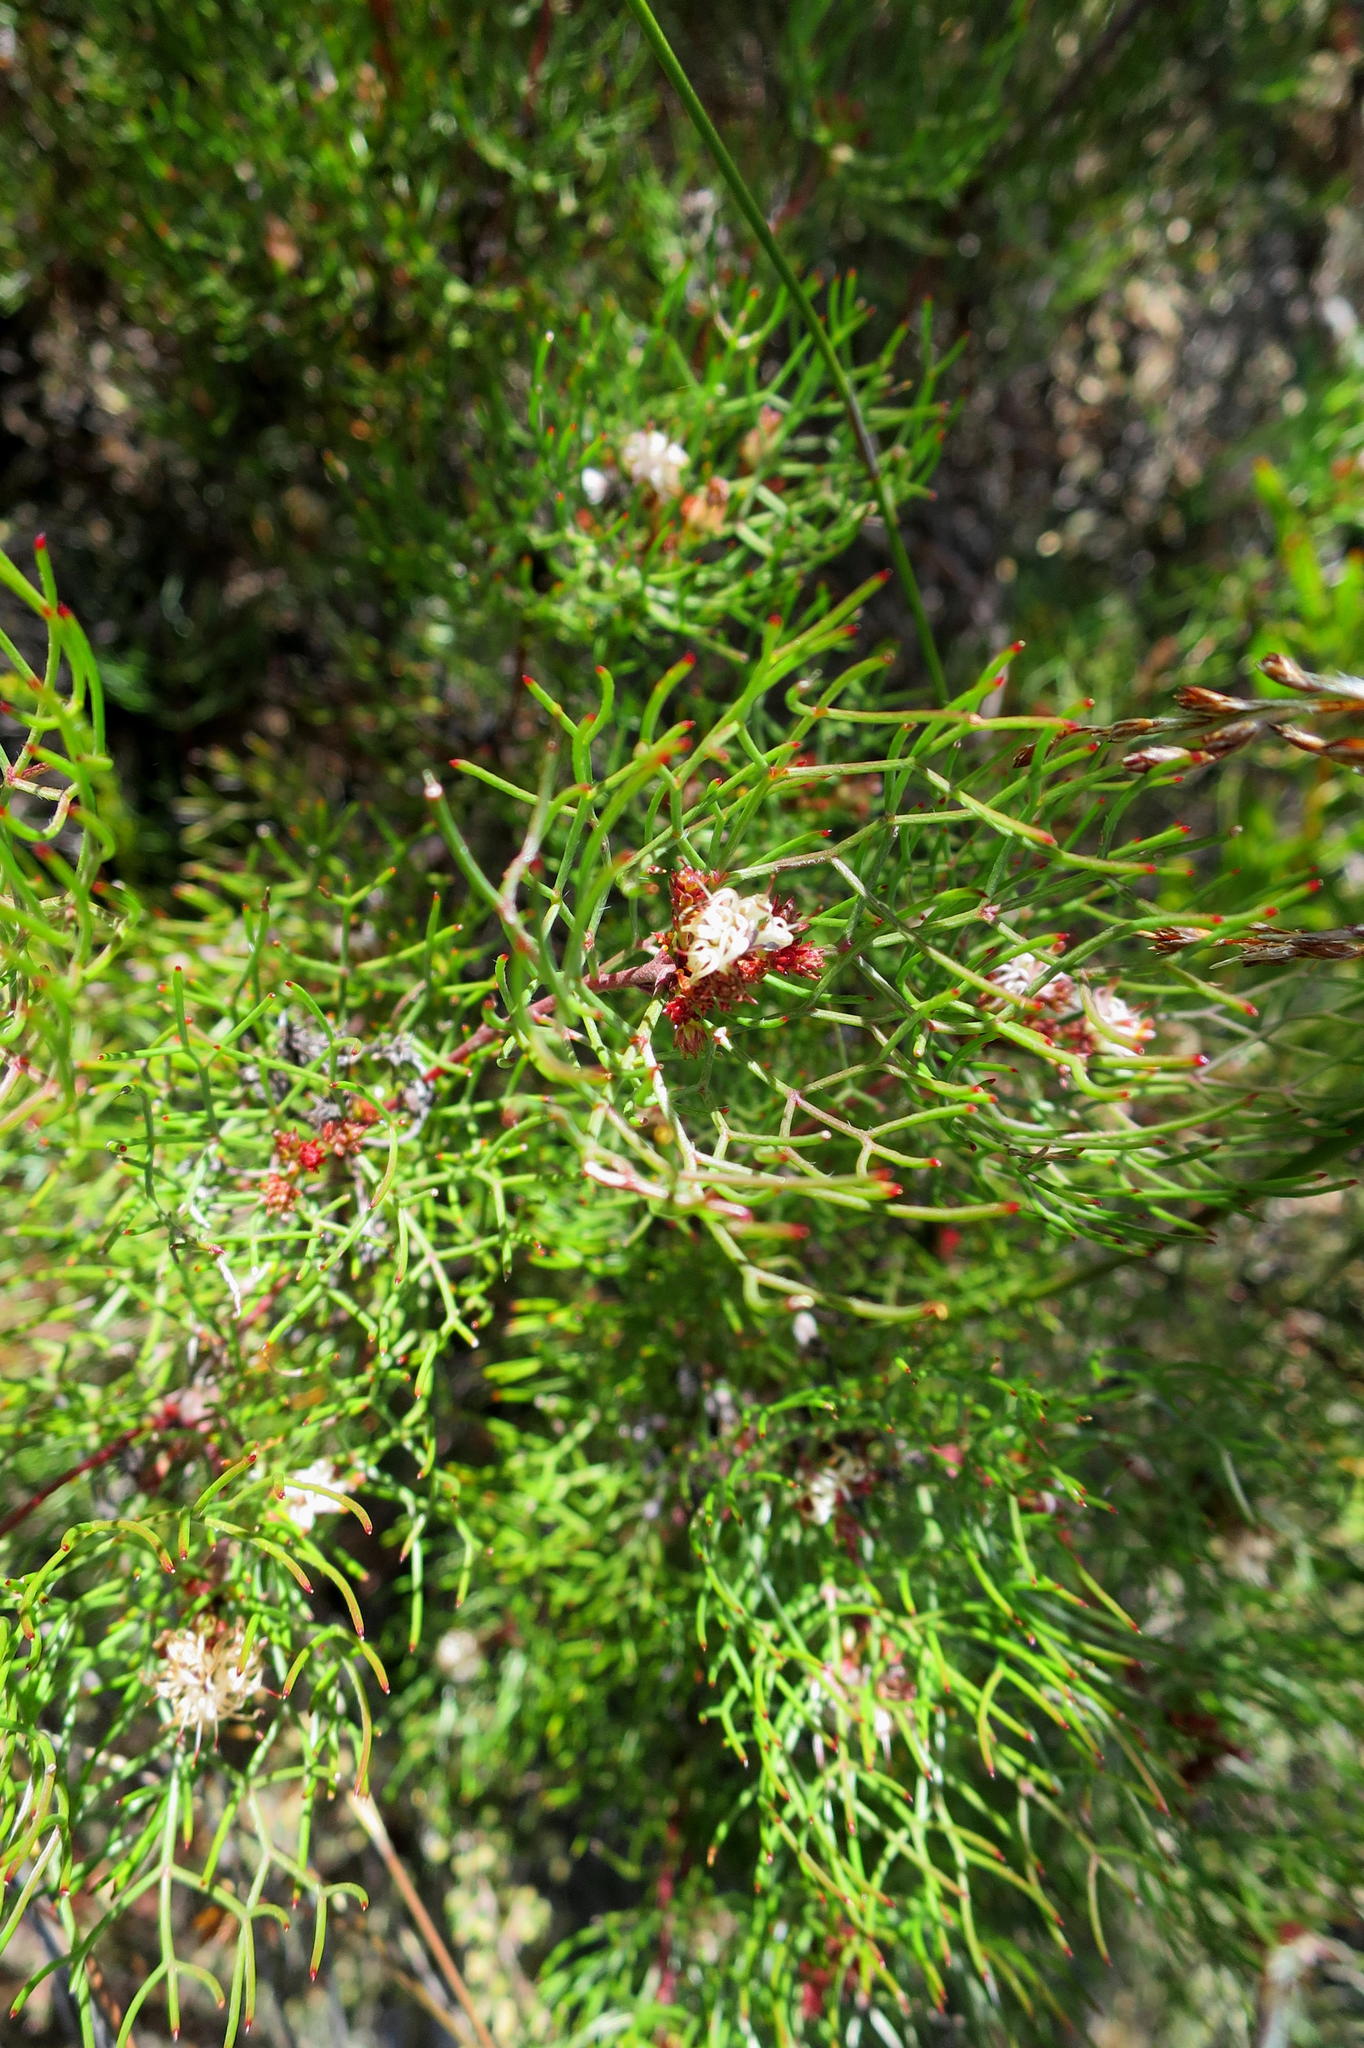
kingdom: Plantae
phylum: Tracheophyta
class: Magnoliopsida
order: Proteales
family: Proteaceae
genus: Serruria
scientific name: Serruria fasciflora
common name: Common pin spiderhead
